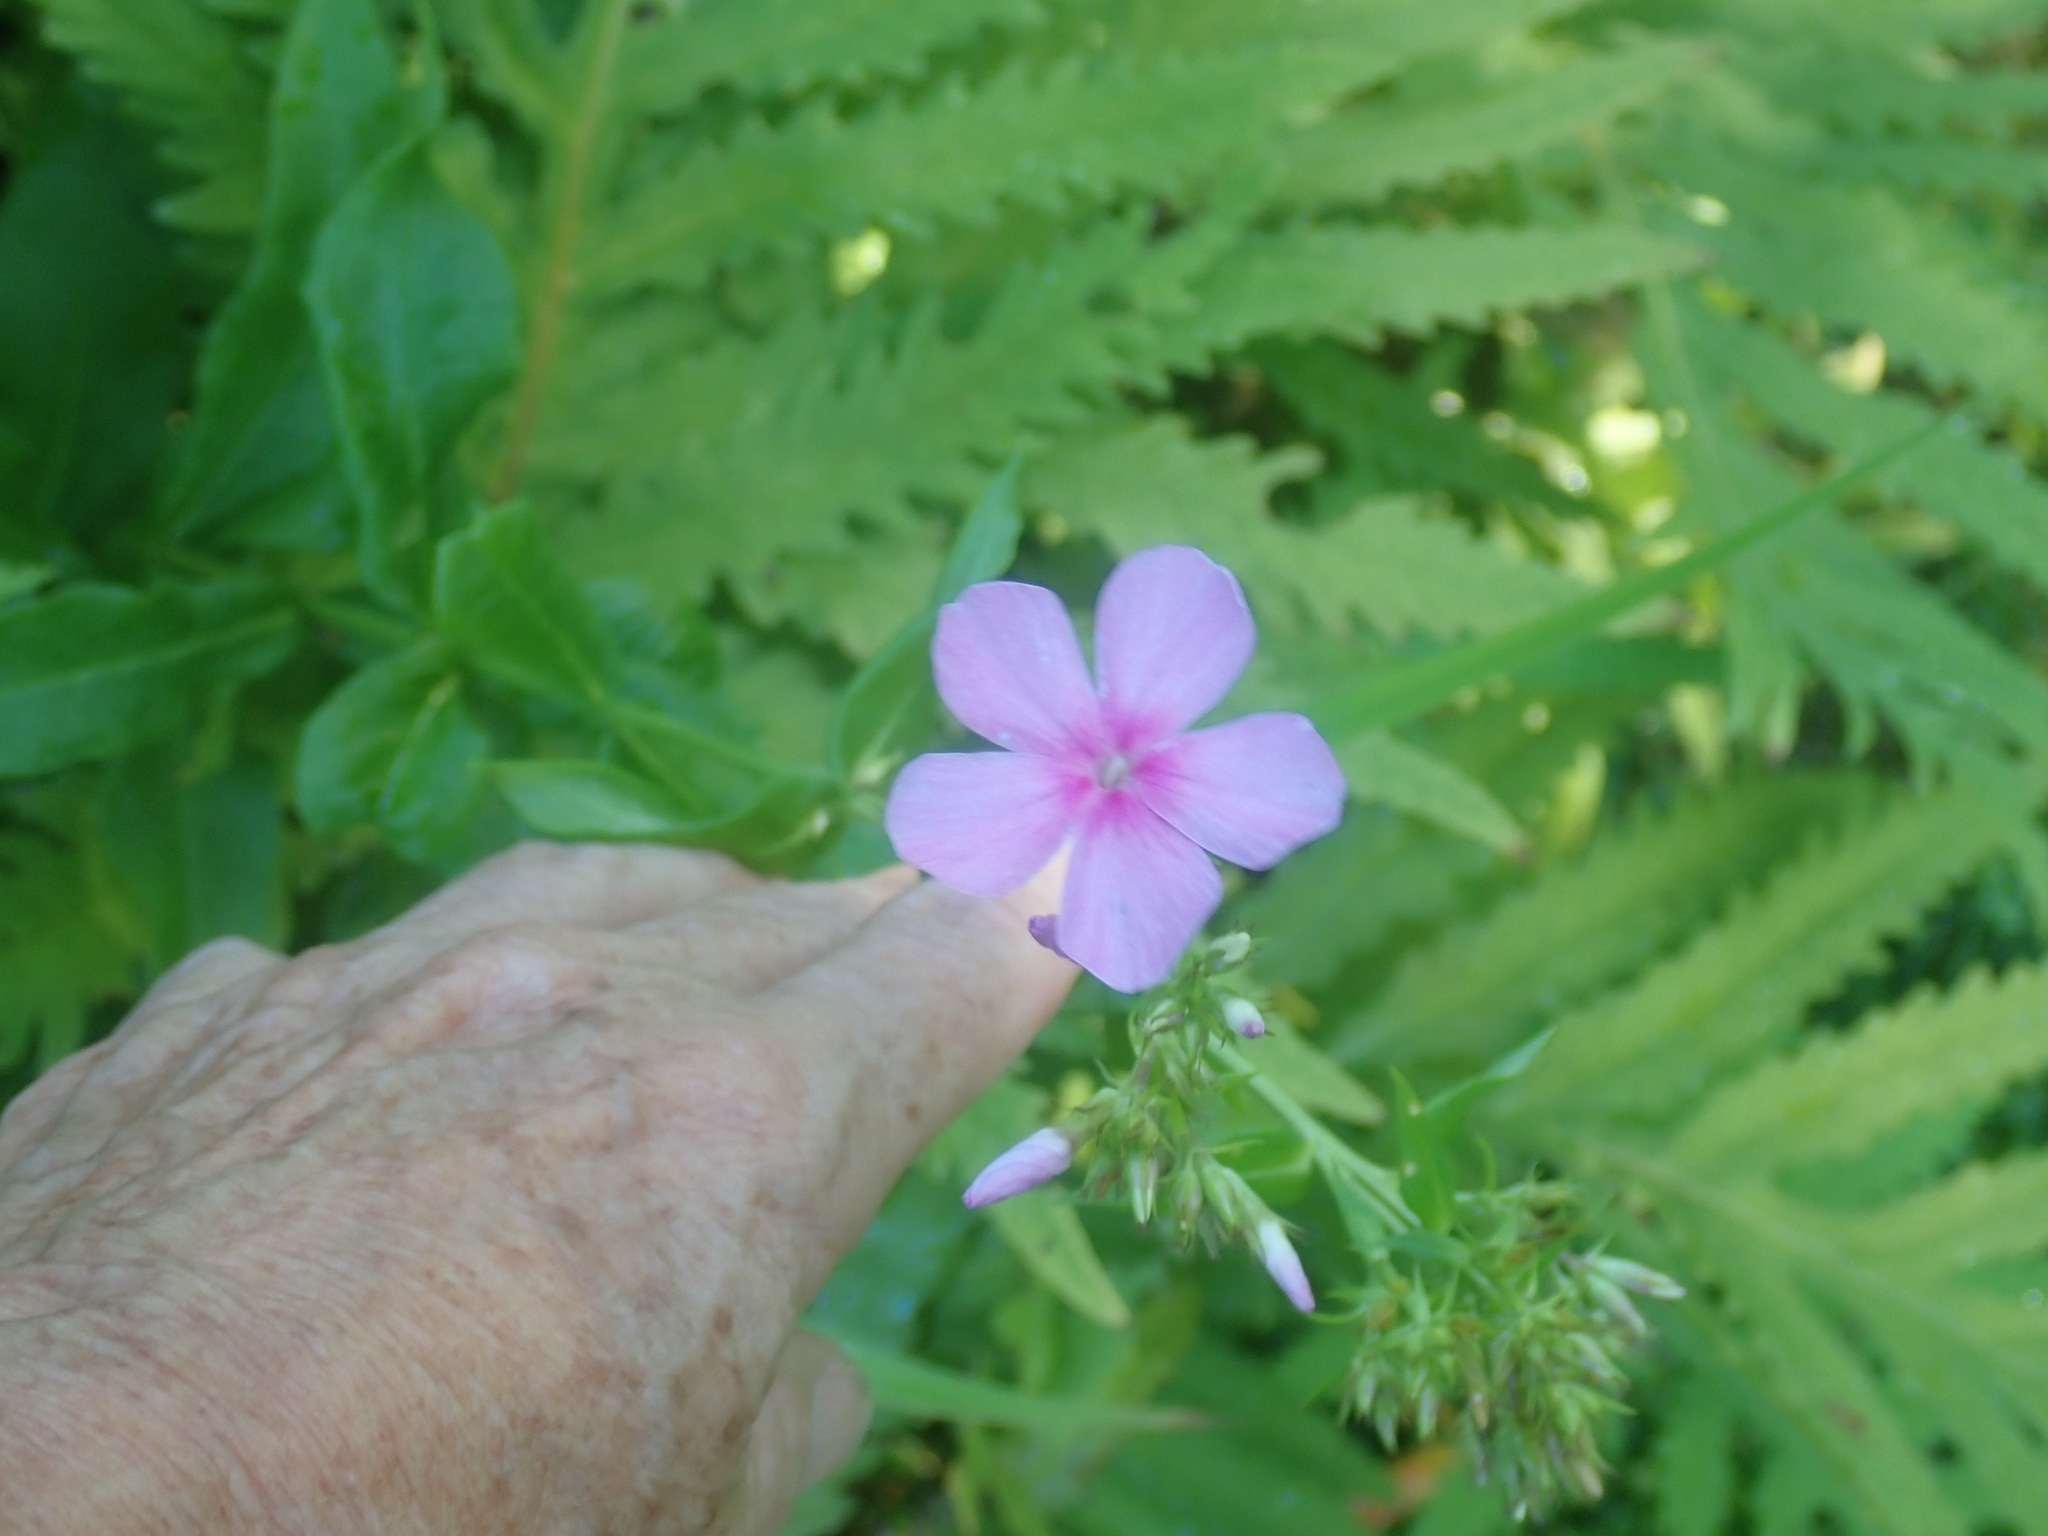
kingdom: Plantae
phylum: Tracheophyta
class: Magnoliopsida
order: Ericales
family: Polemoniaceae
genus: Phlox
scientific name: Phlox paniculata
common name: Fall phlox
